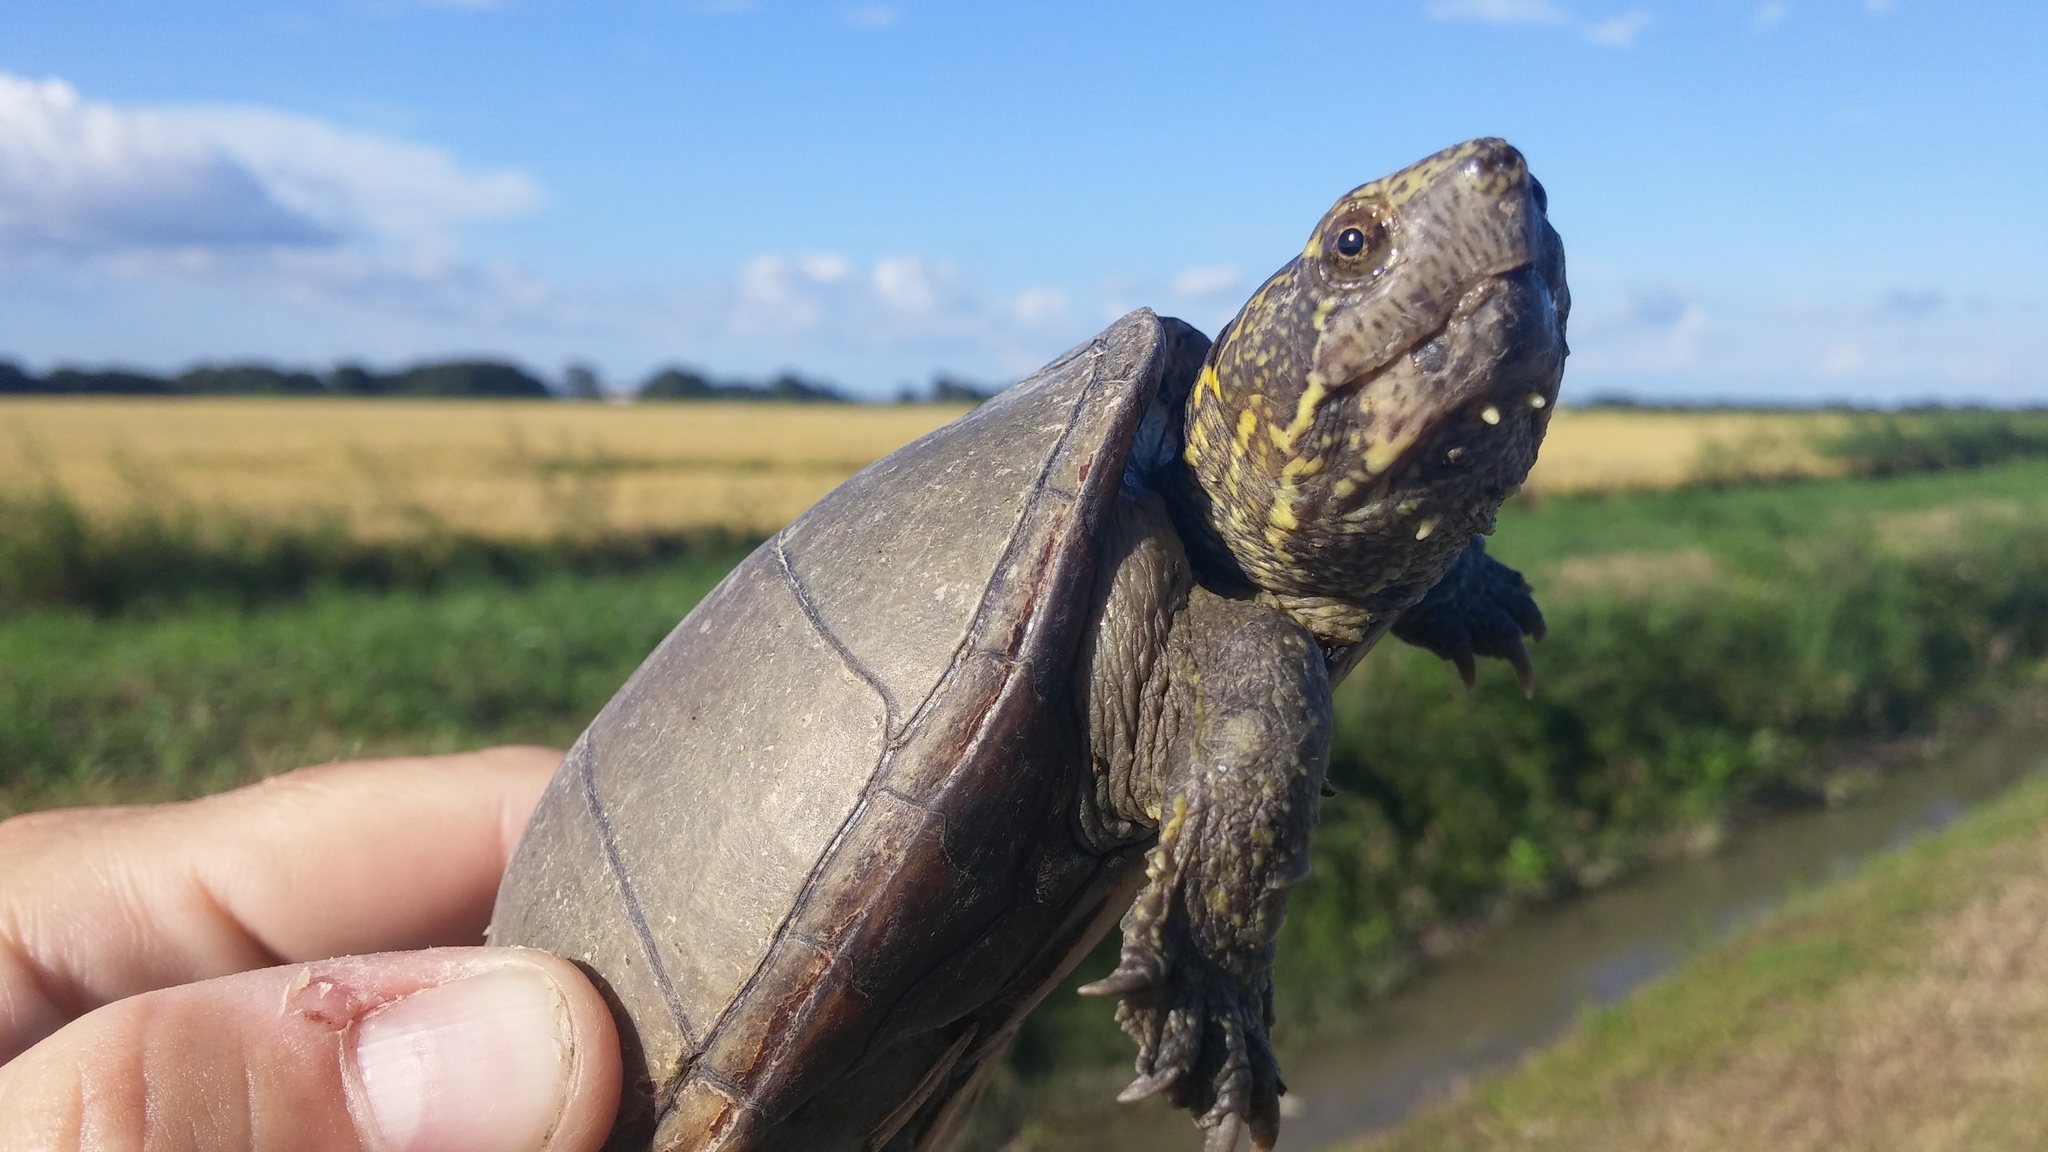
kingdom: Animalia
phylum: Chordata
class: Testudines
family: Kinosternidae
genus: Kinosternon
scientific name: Kinosternon subrubrum
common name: Eastern mud turtle
